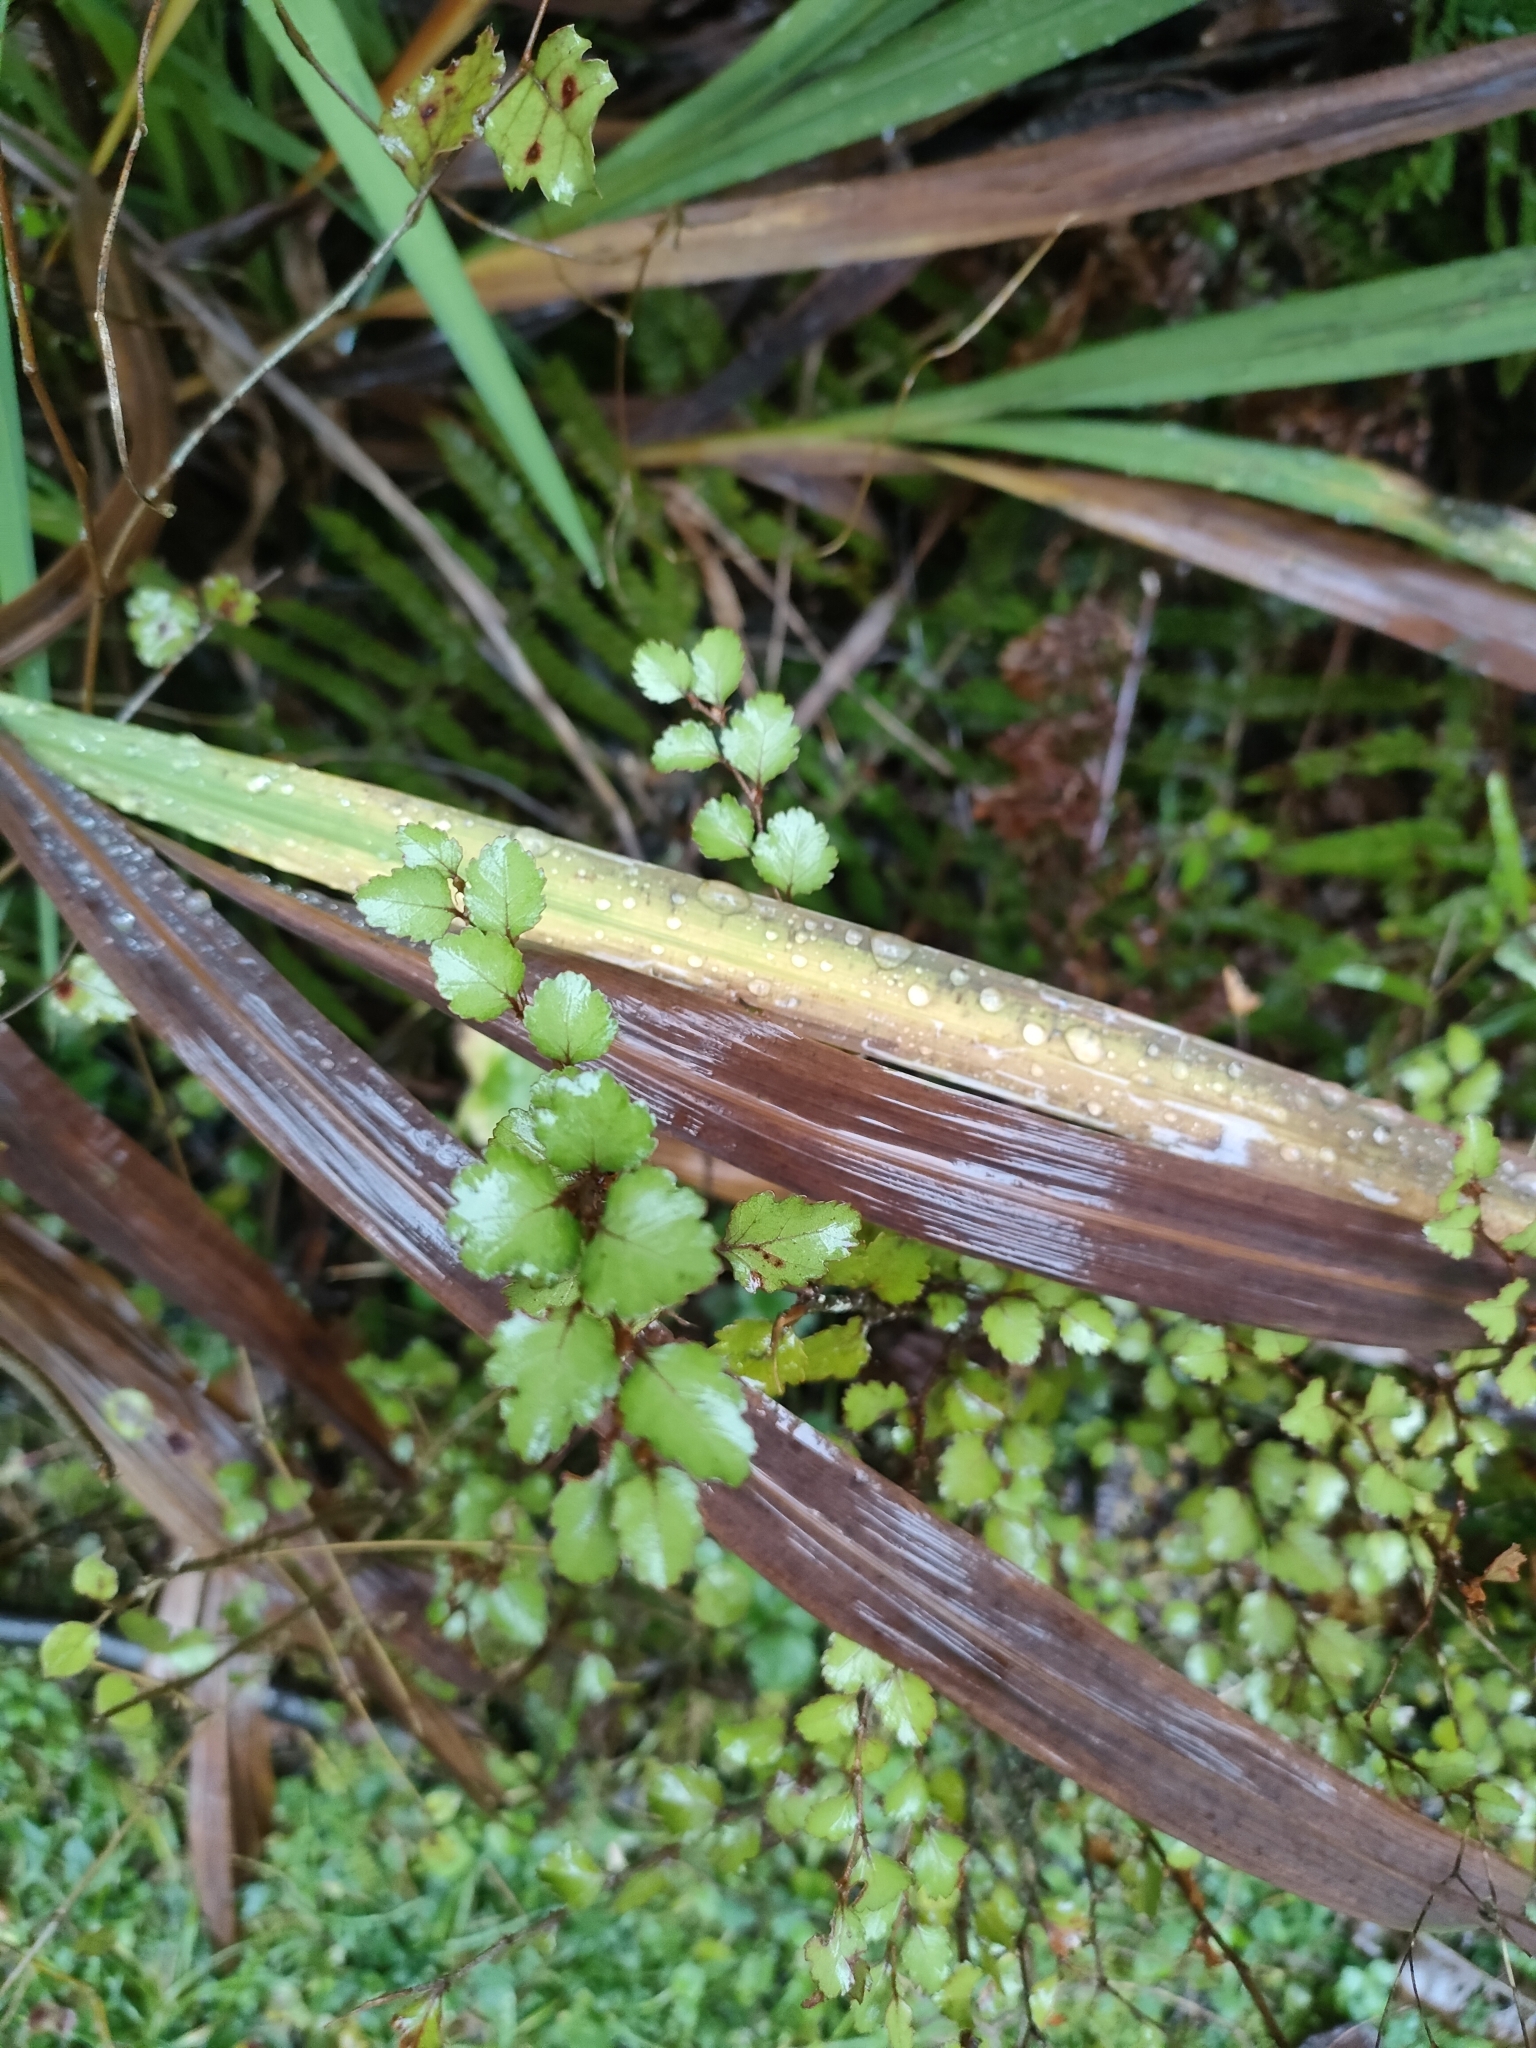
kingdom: Plantae
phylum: Tracheophyta
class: Magnoliopsida
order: Fagales
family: Nothofagaceae
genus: Nothofagus
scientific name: Nothofagus menziesii
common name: Silver beech
